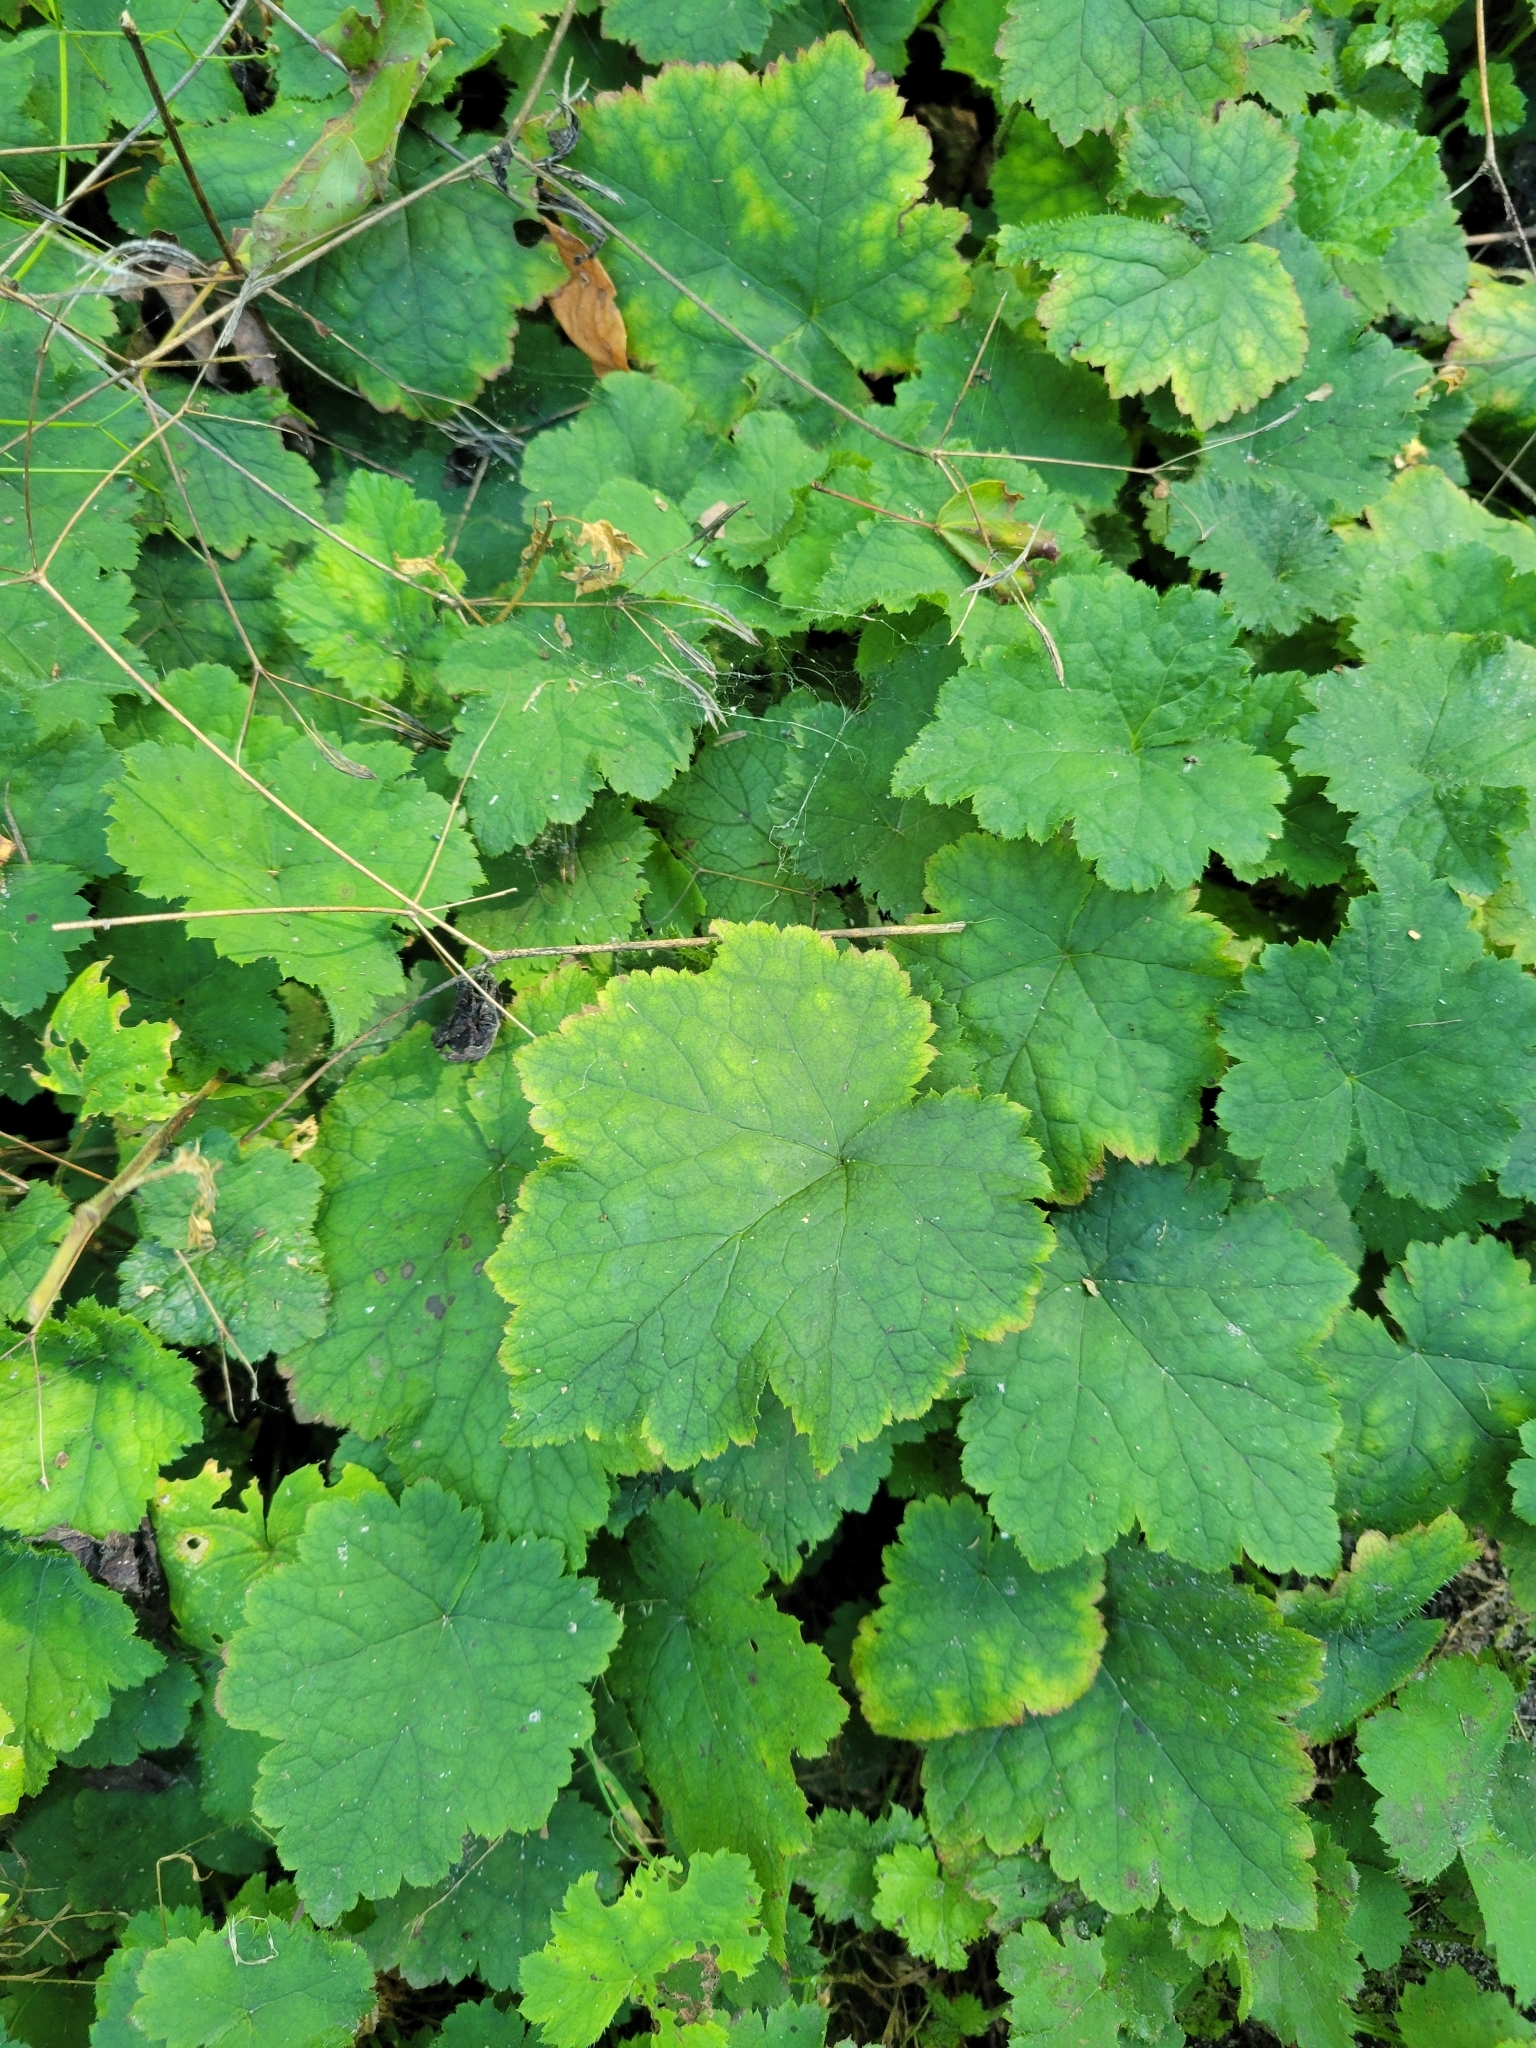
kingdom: Plantae
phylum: Tracheophyta
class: Magnoliopsida
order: Saxifragales
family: Saxifragaceae
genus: Tiarella
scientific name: Tiarella stolonifera
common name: Stoloniferous foamflower
